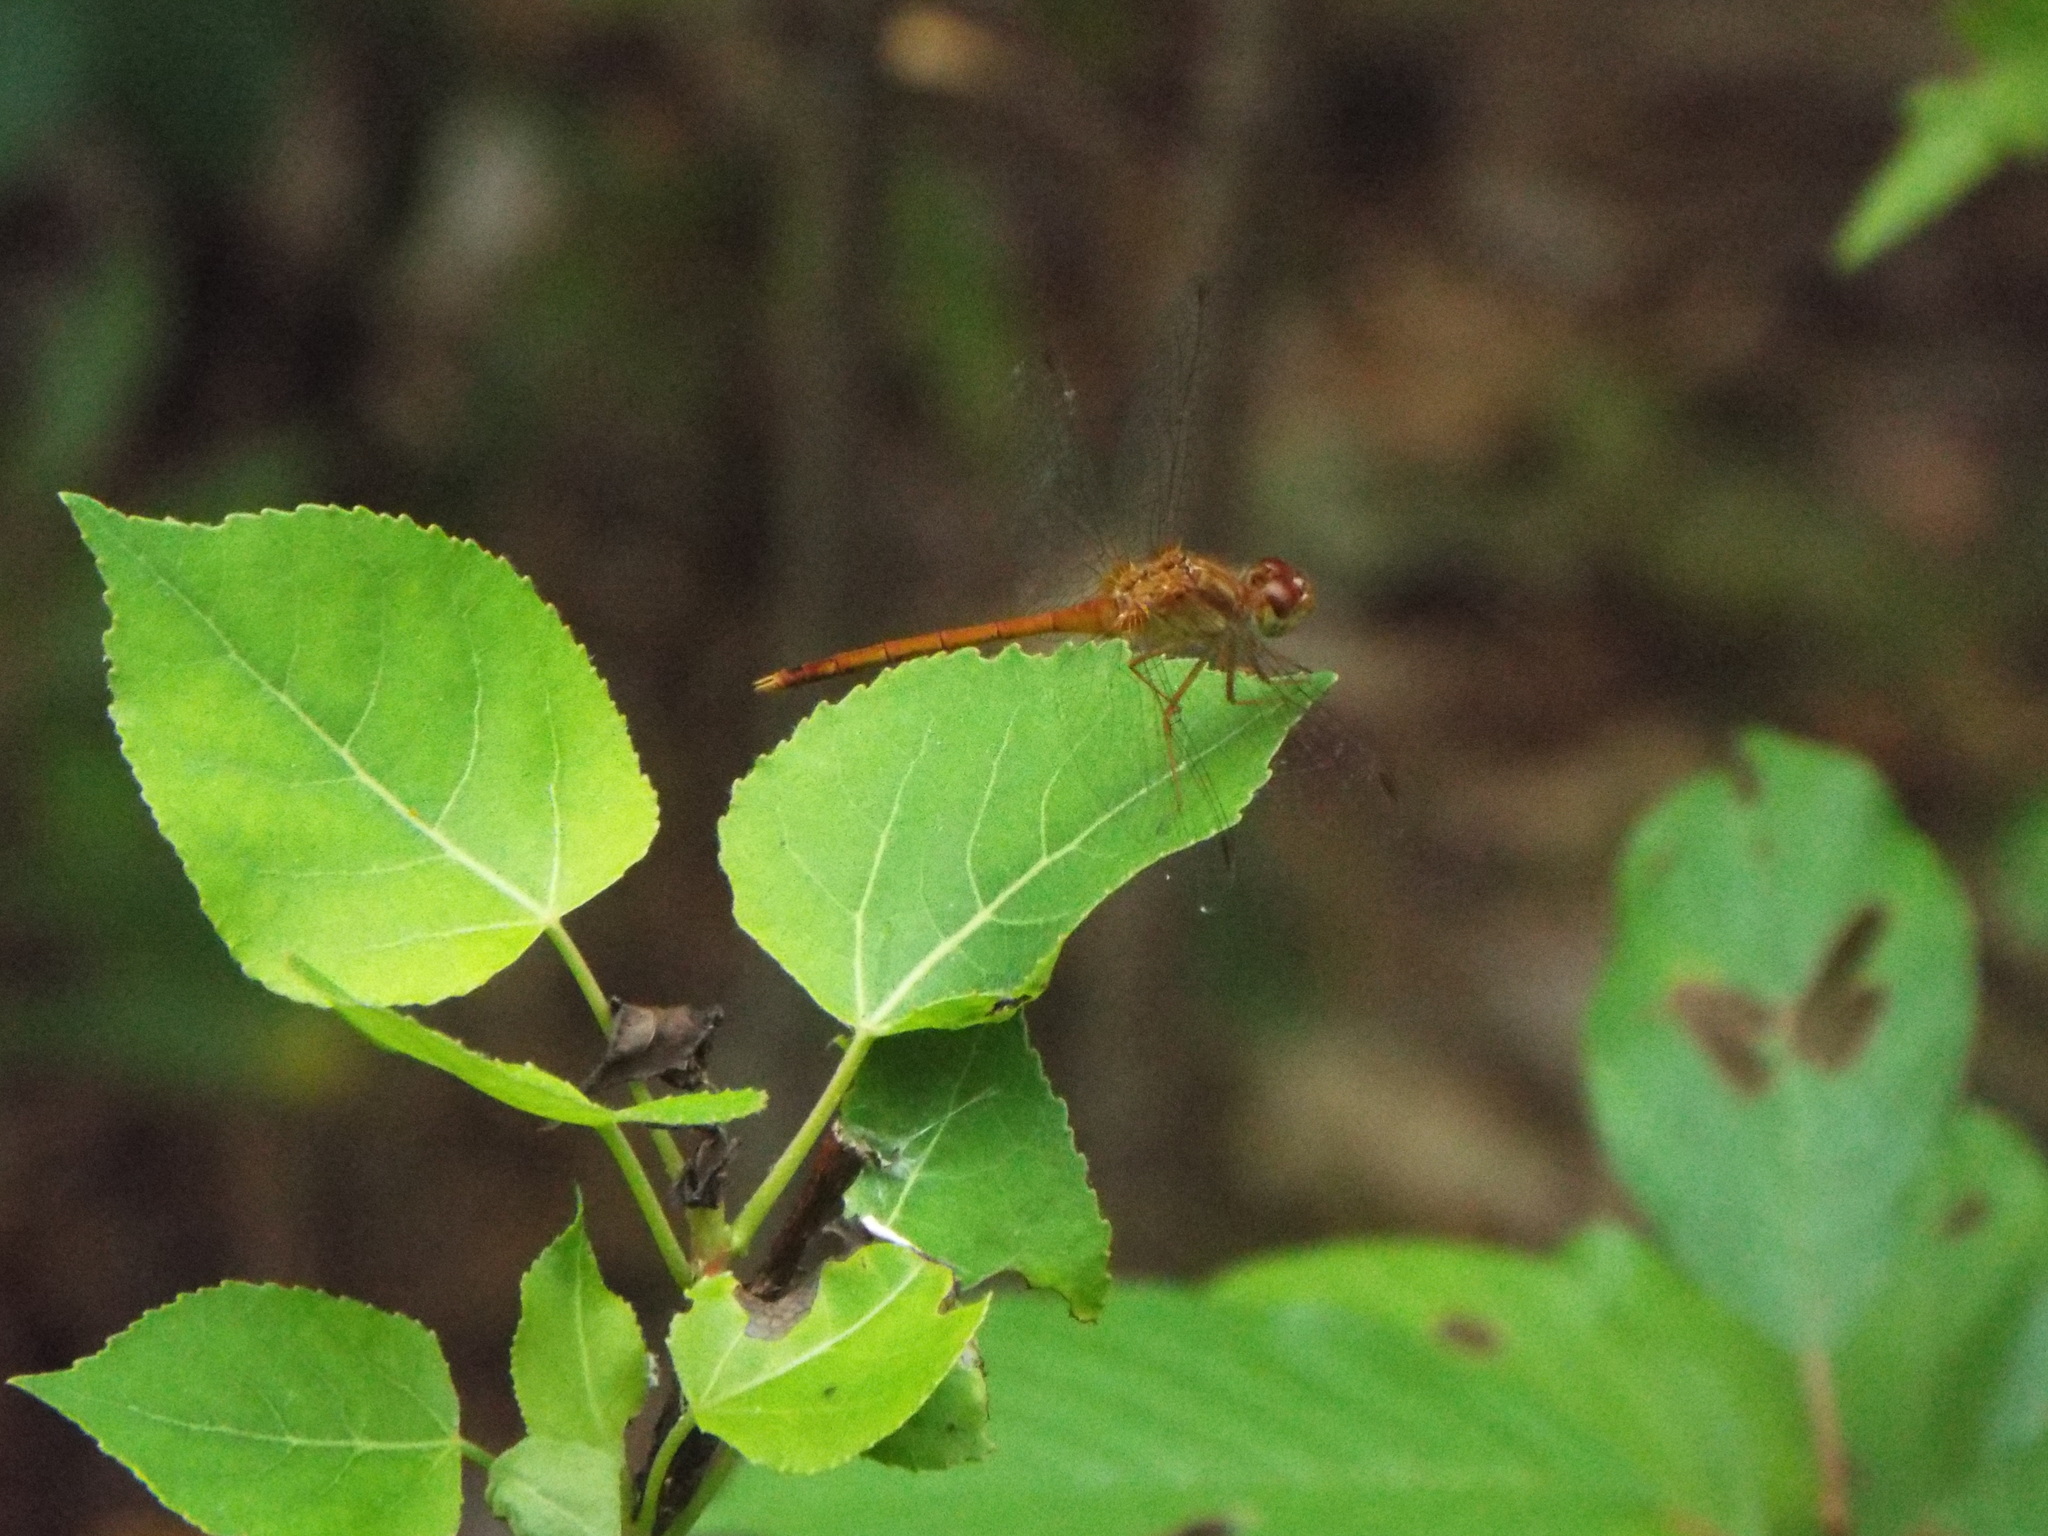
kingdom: Animalia
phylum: Arthropoda
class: Insecta
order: Odonata
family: Libellulidae
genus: Sympetrum
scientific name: Sympetrum vicinum
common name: Autumn meadowhawk
